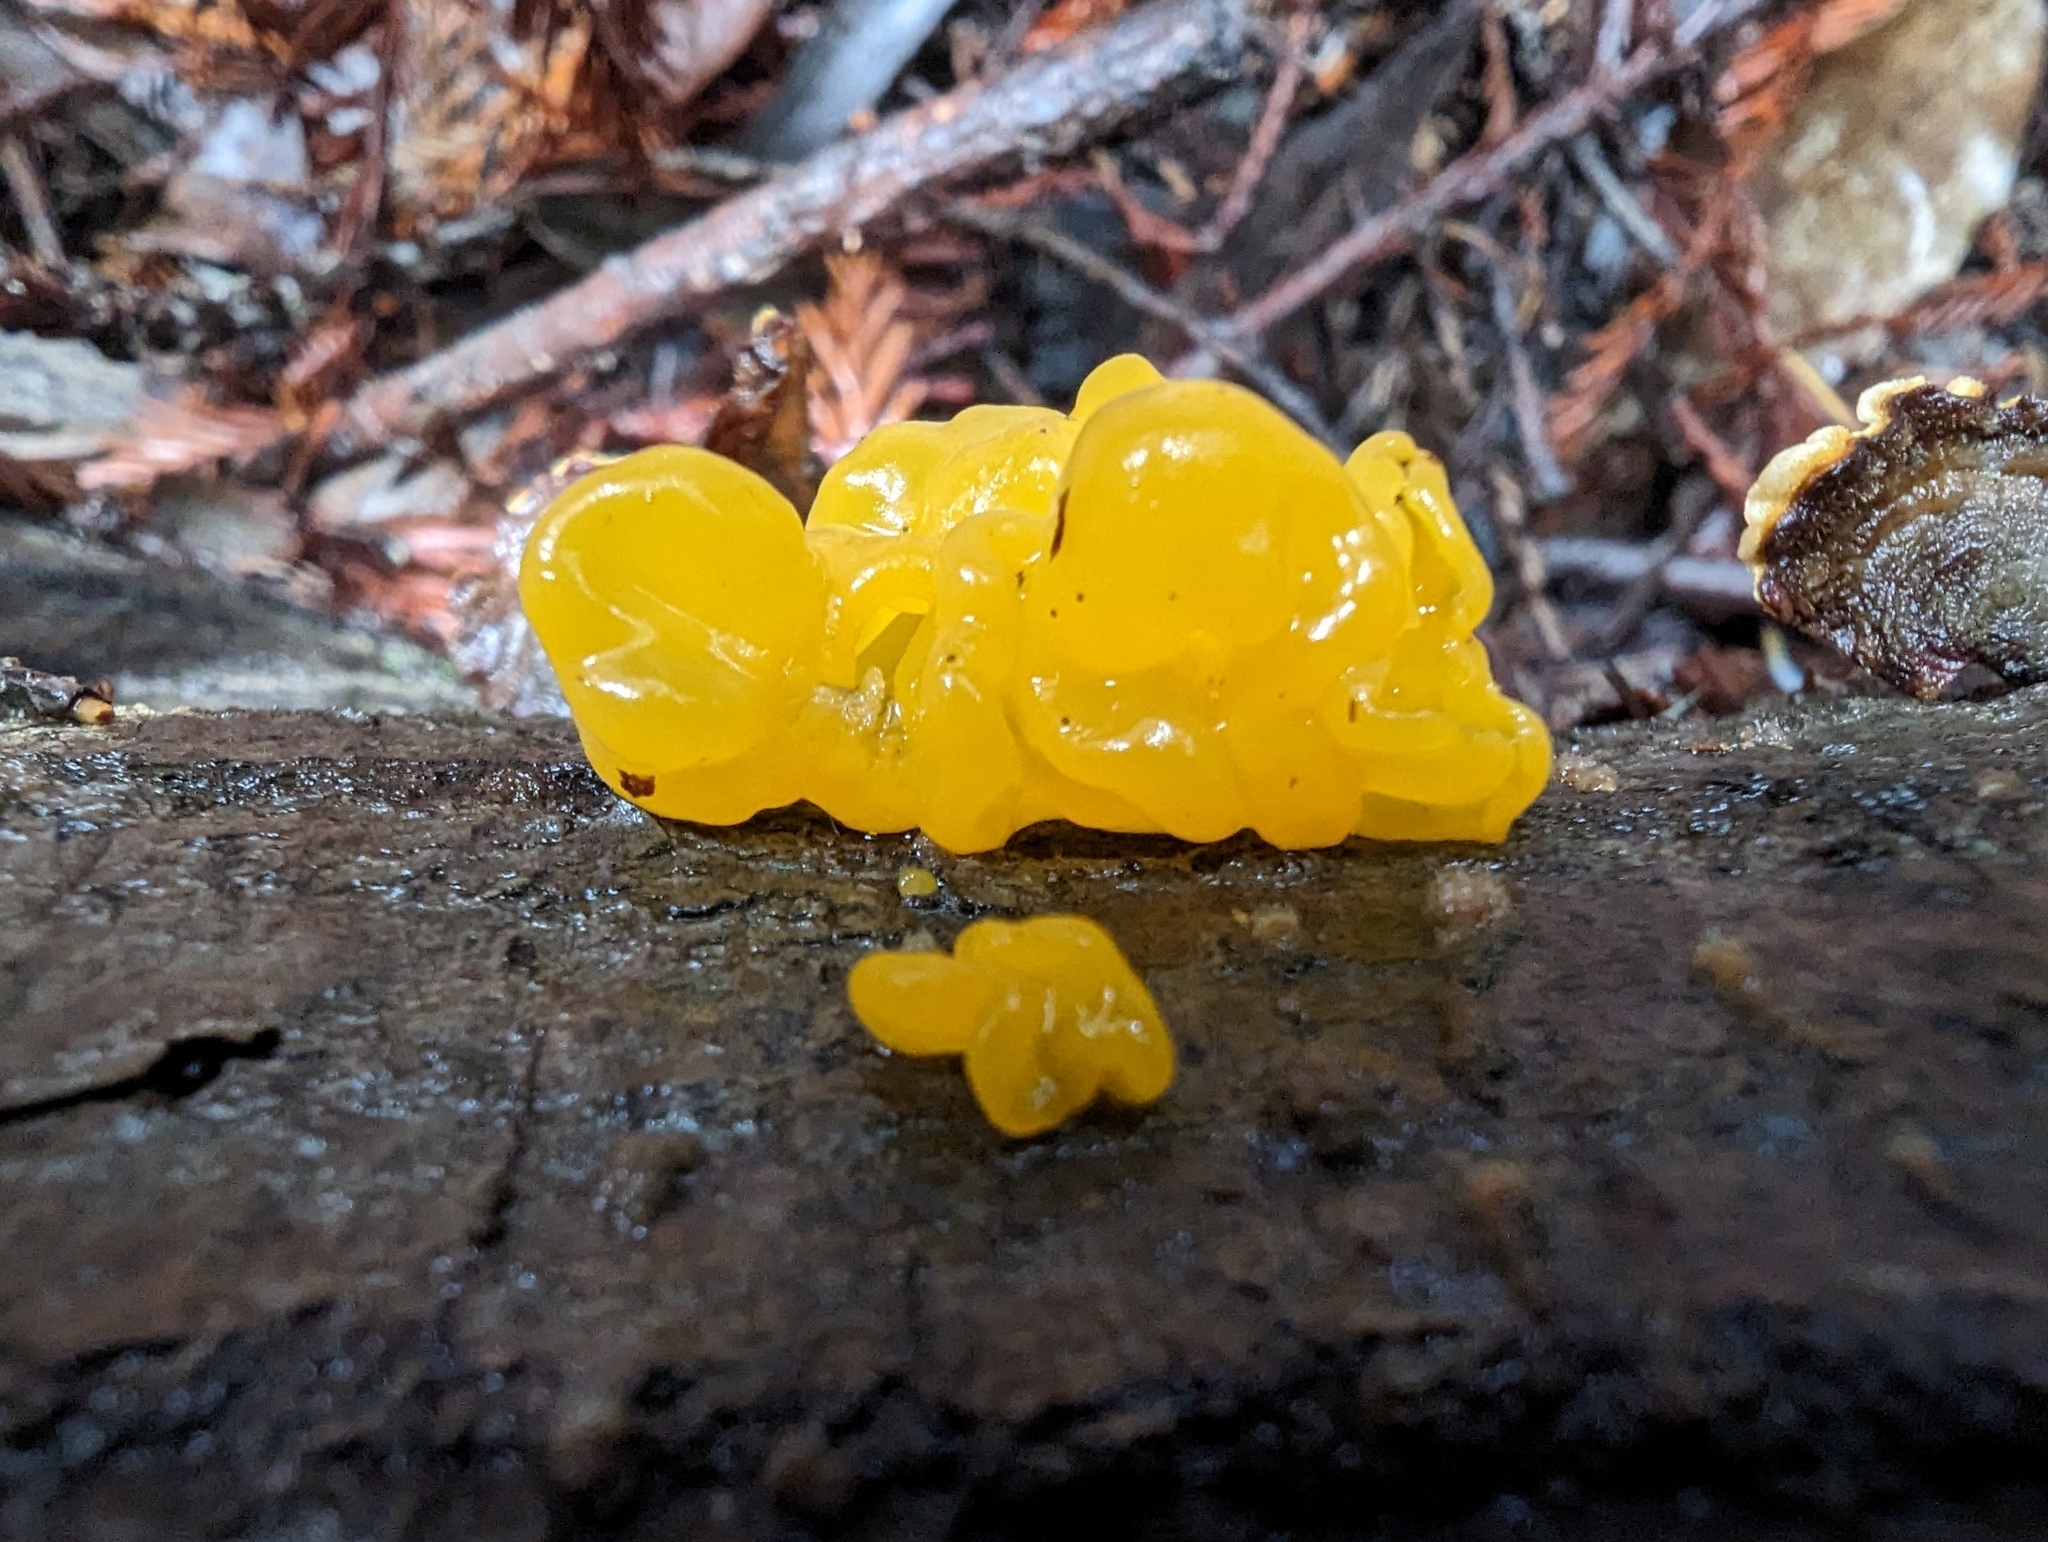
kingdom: Fungi
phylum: Basidiomycota
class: Tremellomycetes
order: Tremellales
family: Naemateliaceae
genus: Naematelia
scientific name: Naematelia aurantia
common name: Golden ear
